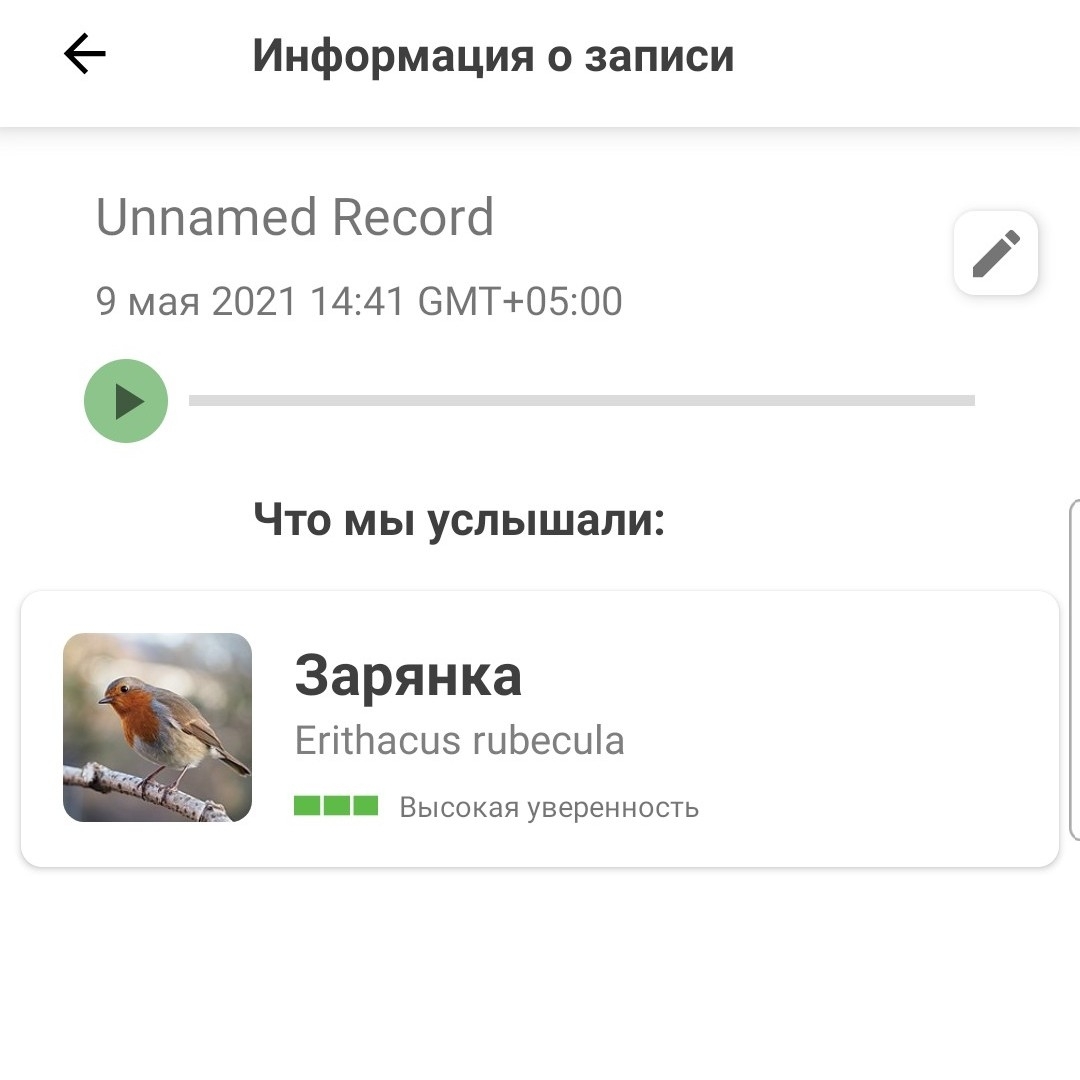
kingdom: Animalia
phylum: Chordata
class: Aves
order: Passeriformes
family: Muscicapidae
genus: Erithacus
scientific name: Erithacus rubecula
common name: European robin
